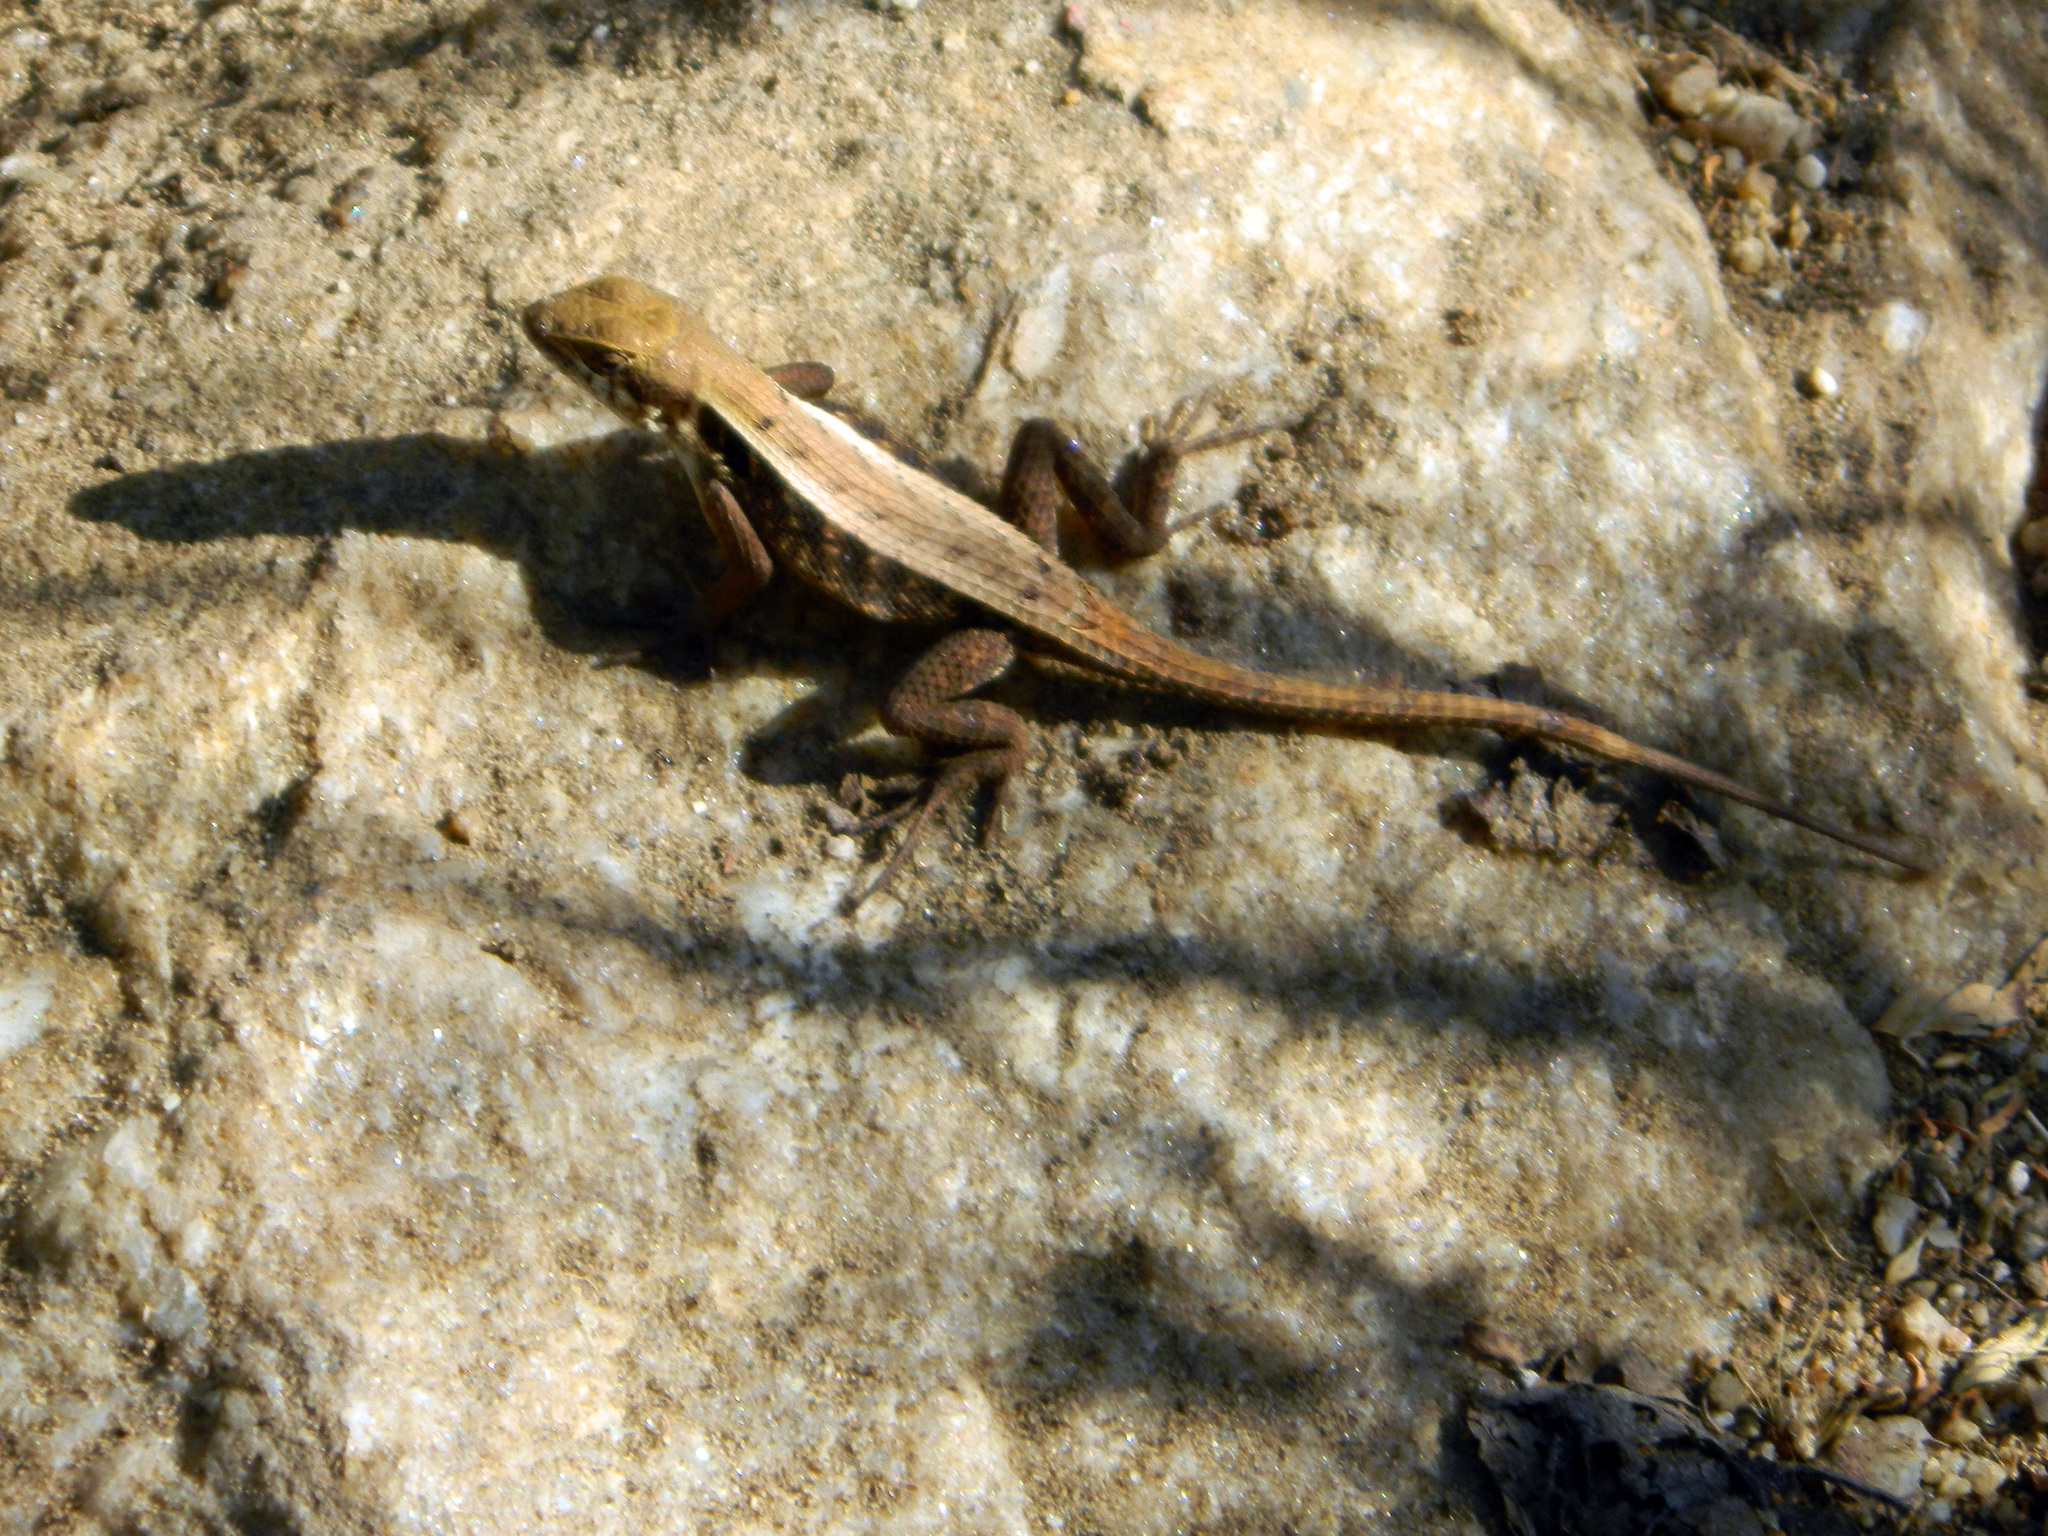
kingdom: Animalia
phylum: Chordata
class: Squamata
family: Phrynosomatidae
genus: Sceloporus
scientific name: Sceloporus siniferus
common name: Longtail spiny lizard
